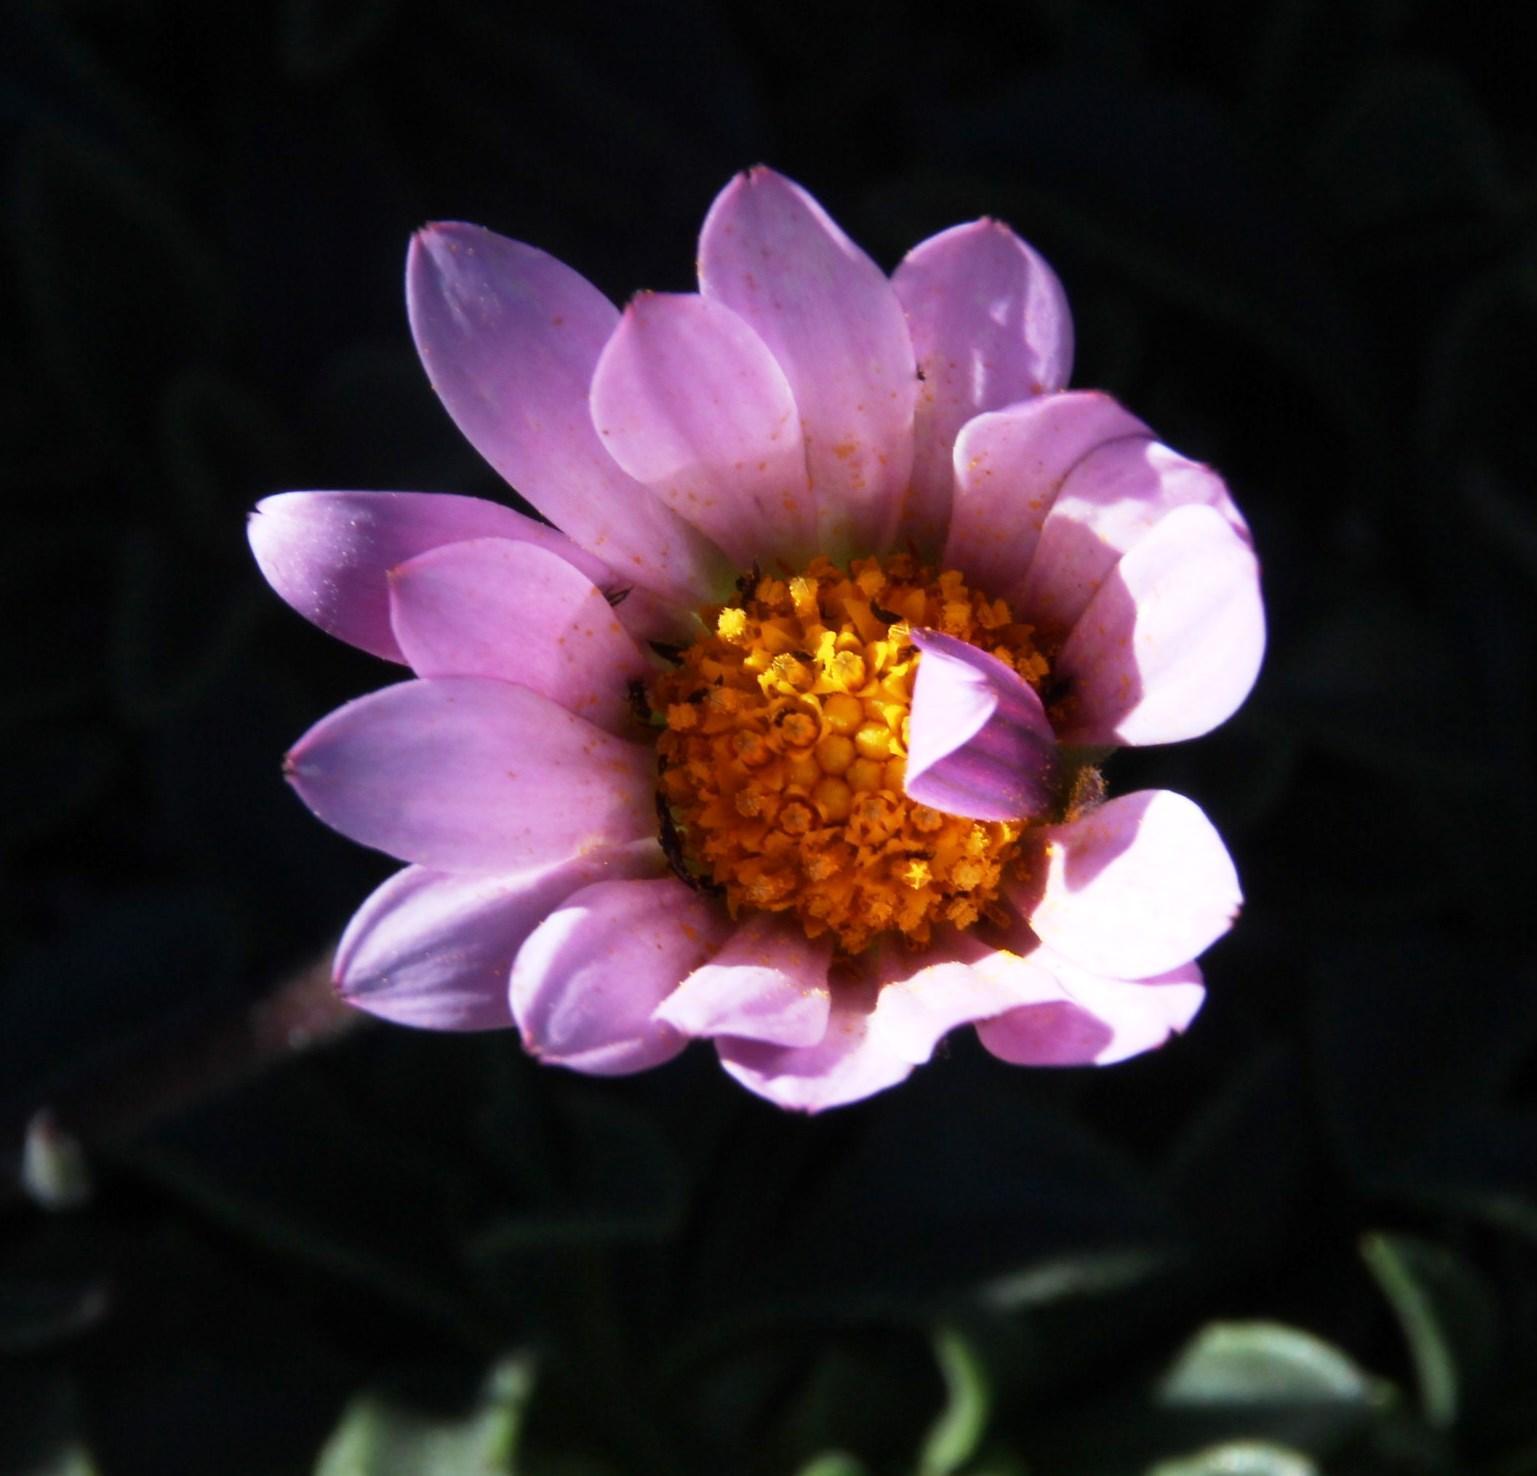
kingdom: Plantae
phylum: Tracheophyta
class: Magnoliopsida
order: Asterales
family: Asteraceae
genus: Dimorphotheca
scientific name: Dimorphotheca venusta
